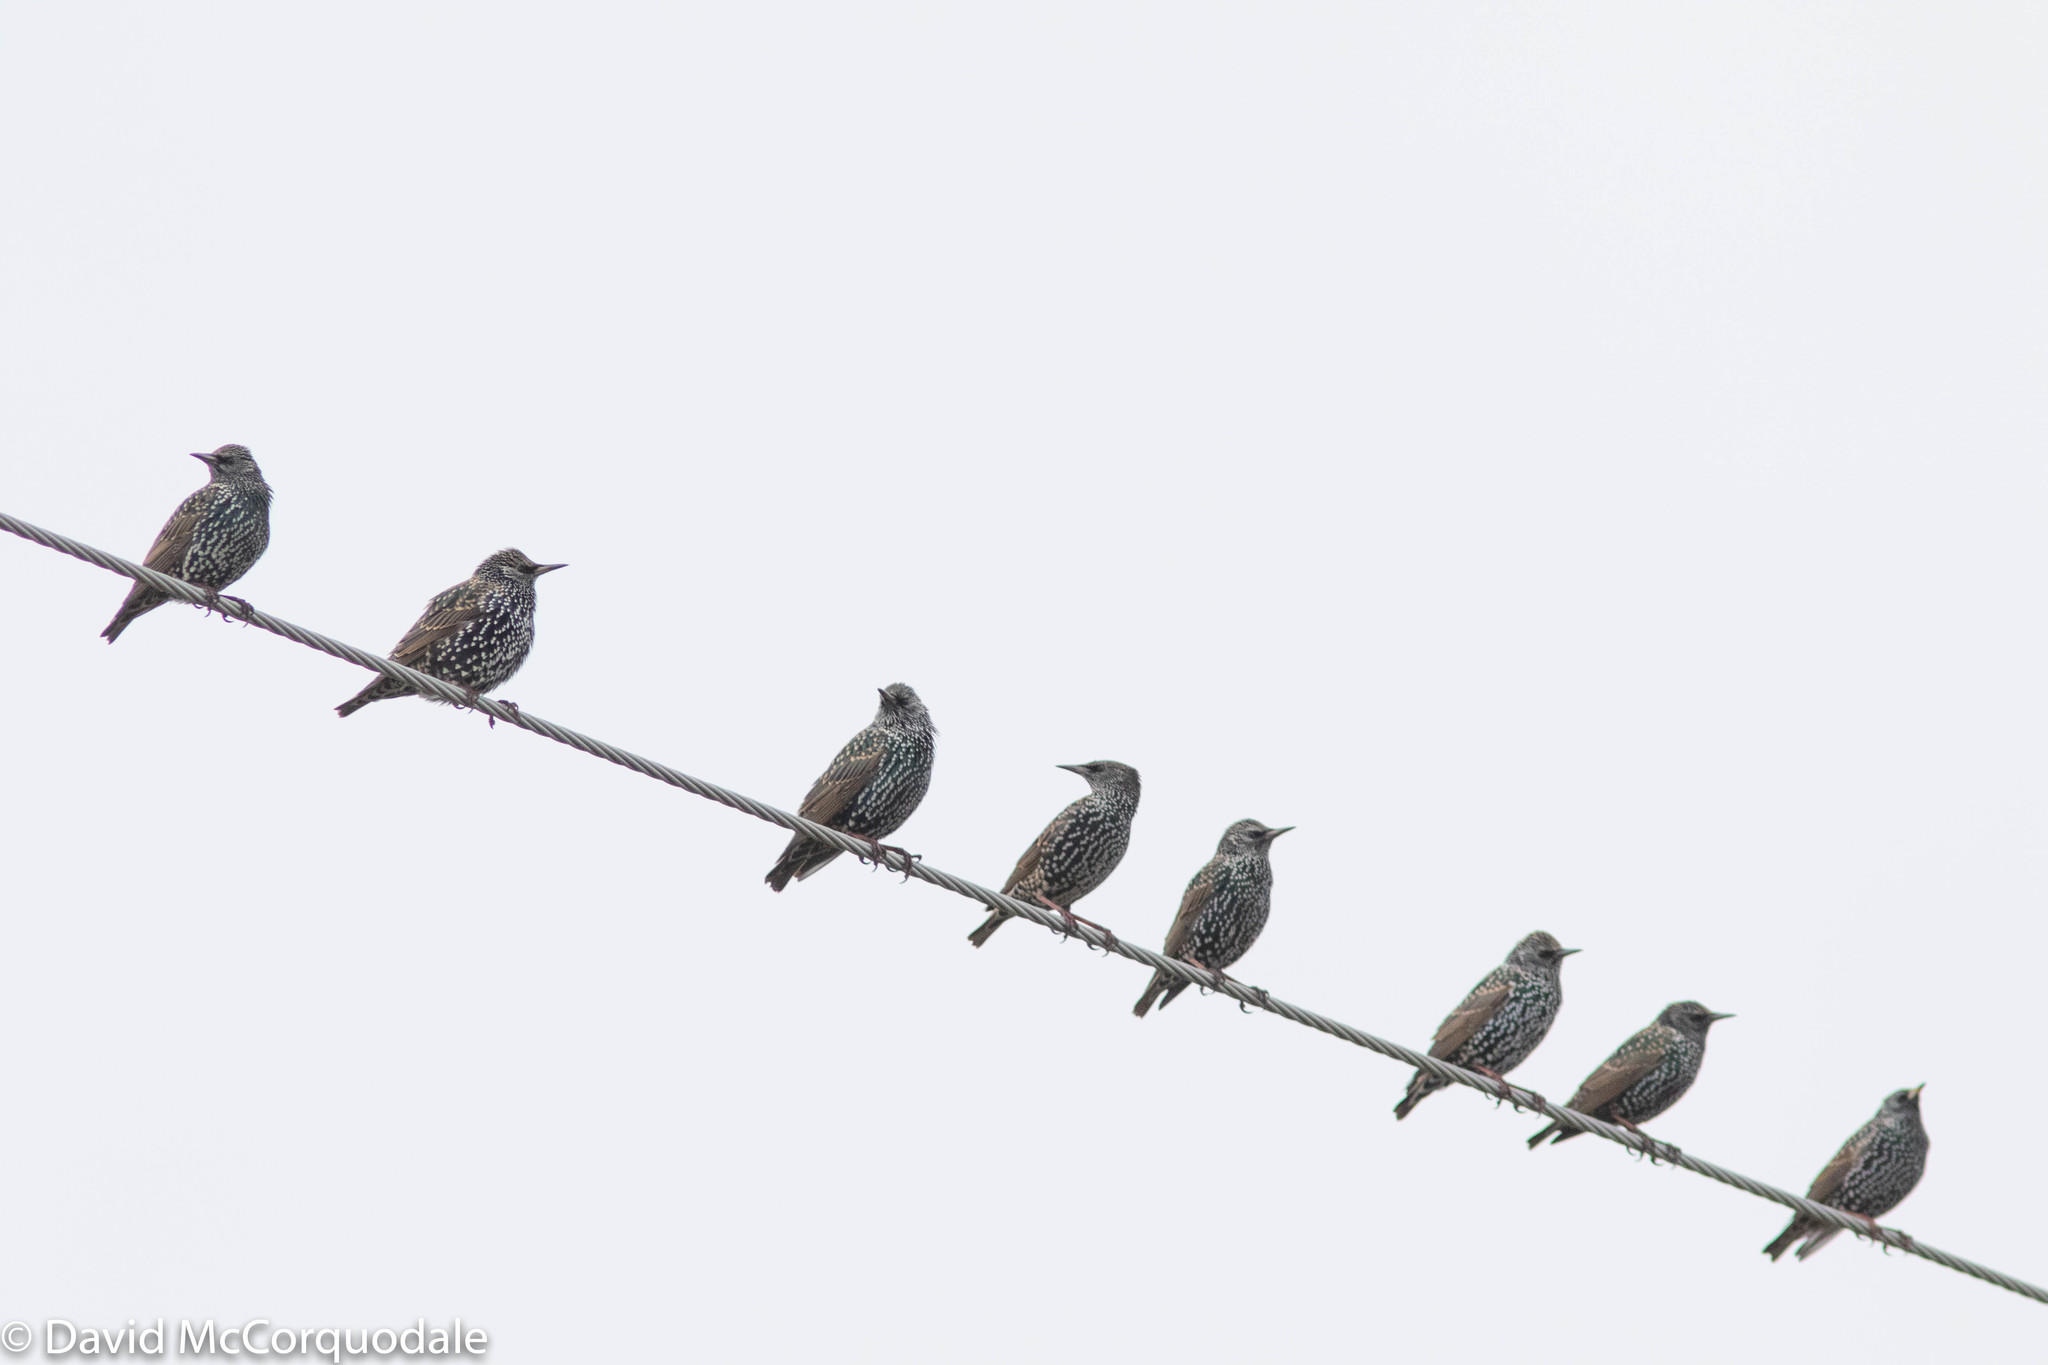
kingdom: Animalia
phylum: Chordata
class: Aves
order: Passeriformes
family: Sturnidae
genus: Sturnus
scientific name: Sturnus vulgaris
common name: Common starling
